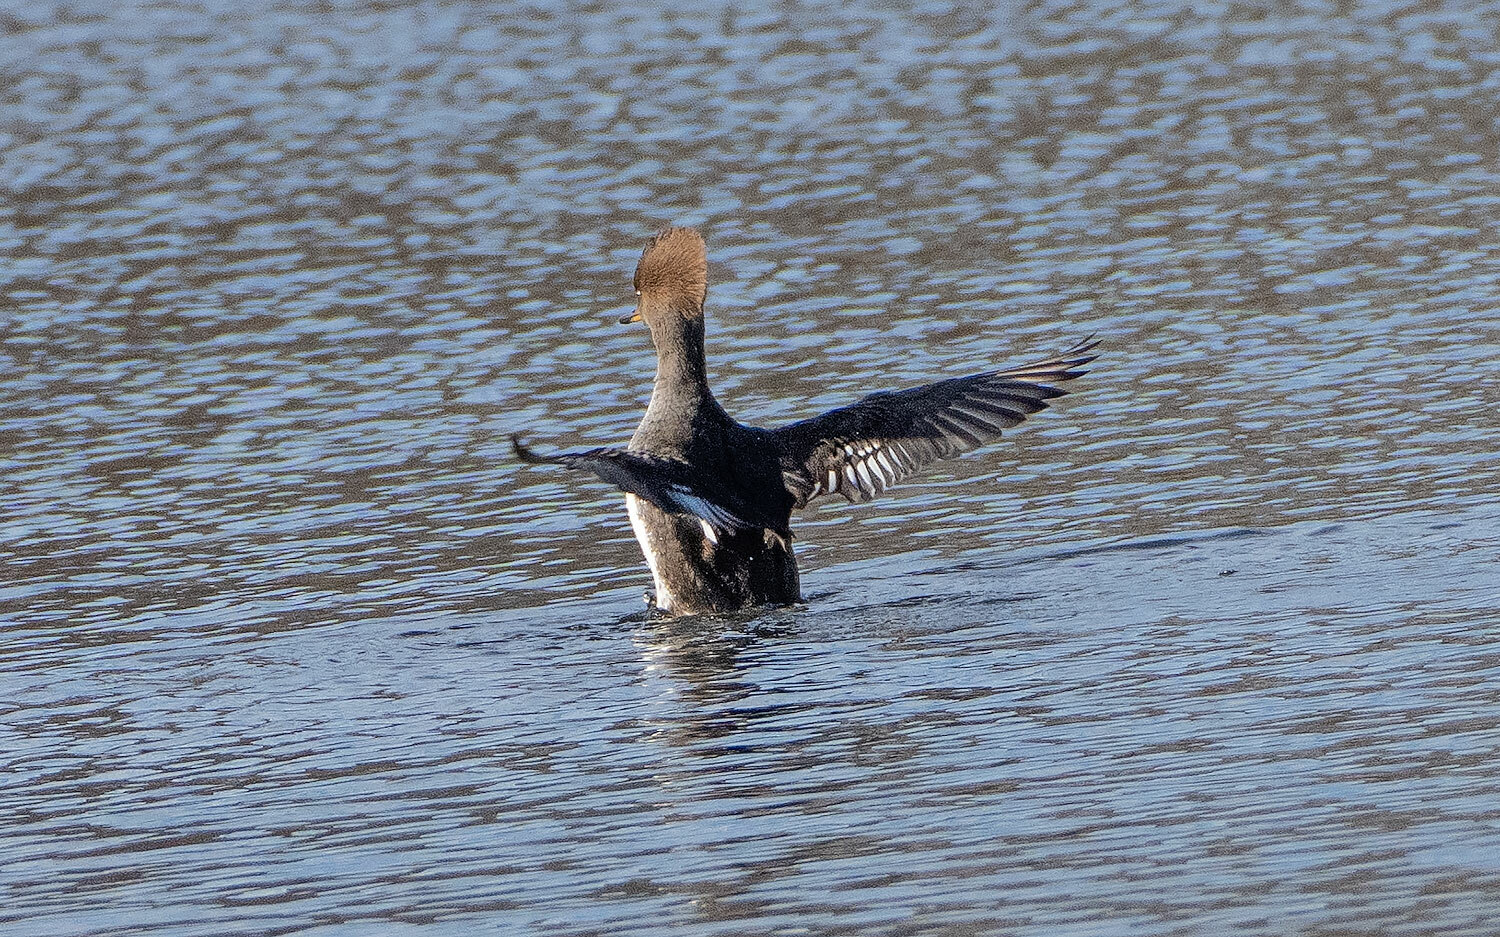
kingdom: Animalia
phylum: Chordata
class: Aves
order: Anseriformes
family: Anatidae
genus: Lophodytes
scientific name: Lophodytes cucullatus
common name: Hooded merganser
